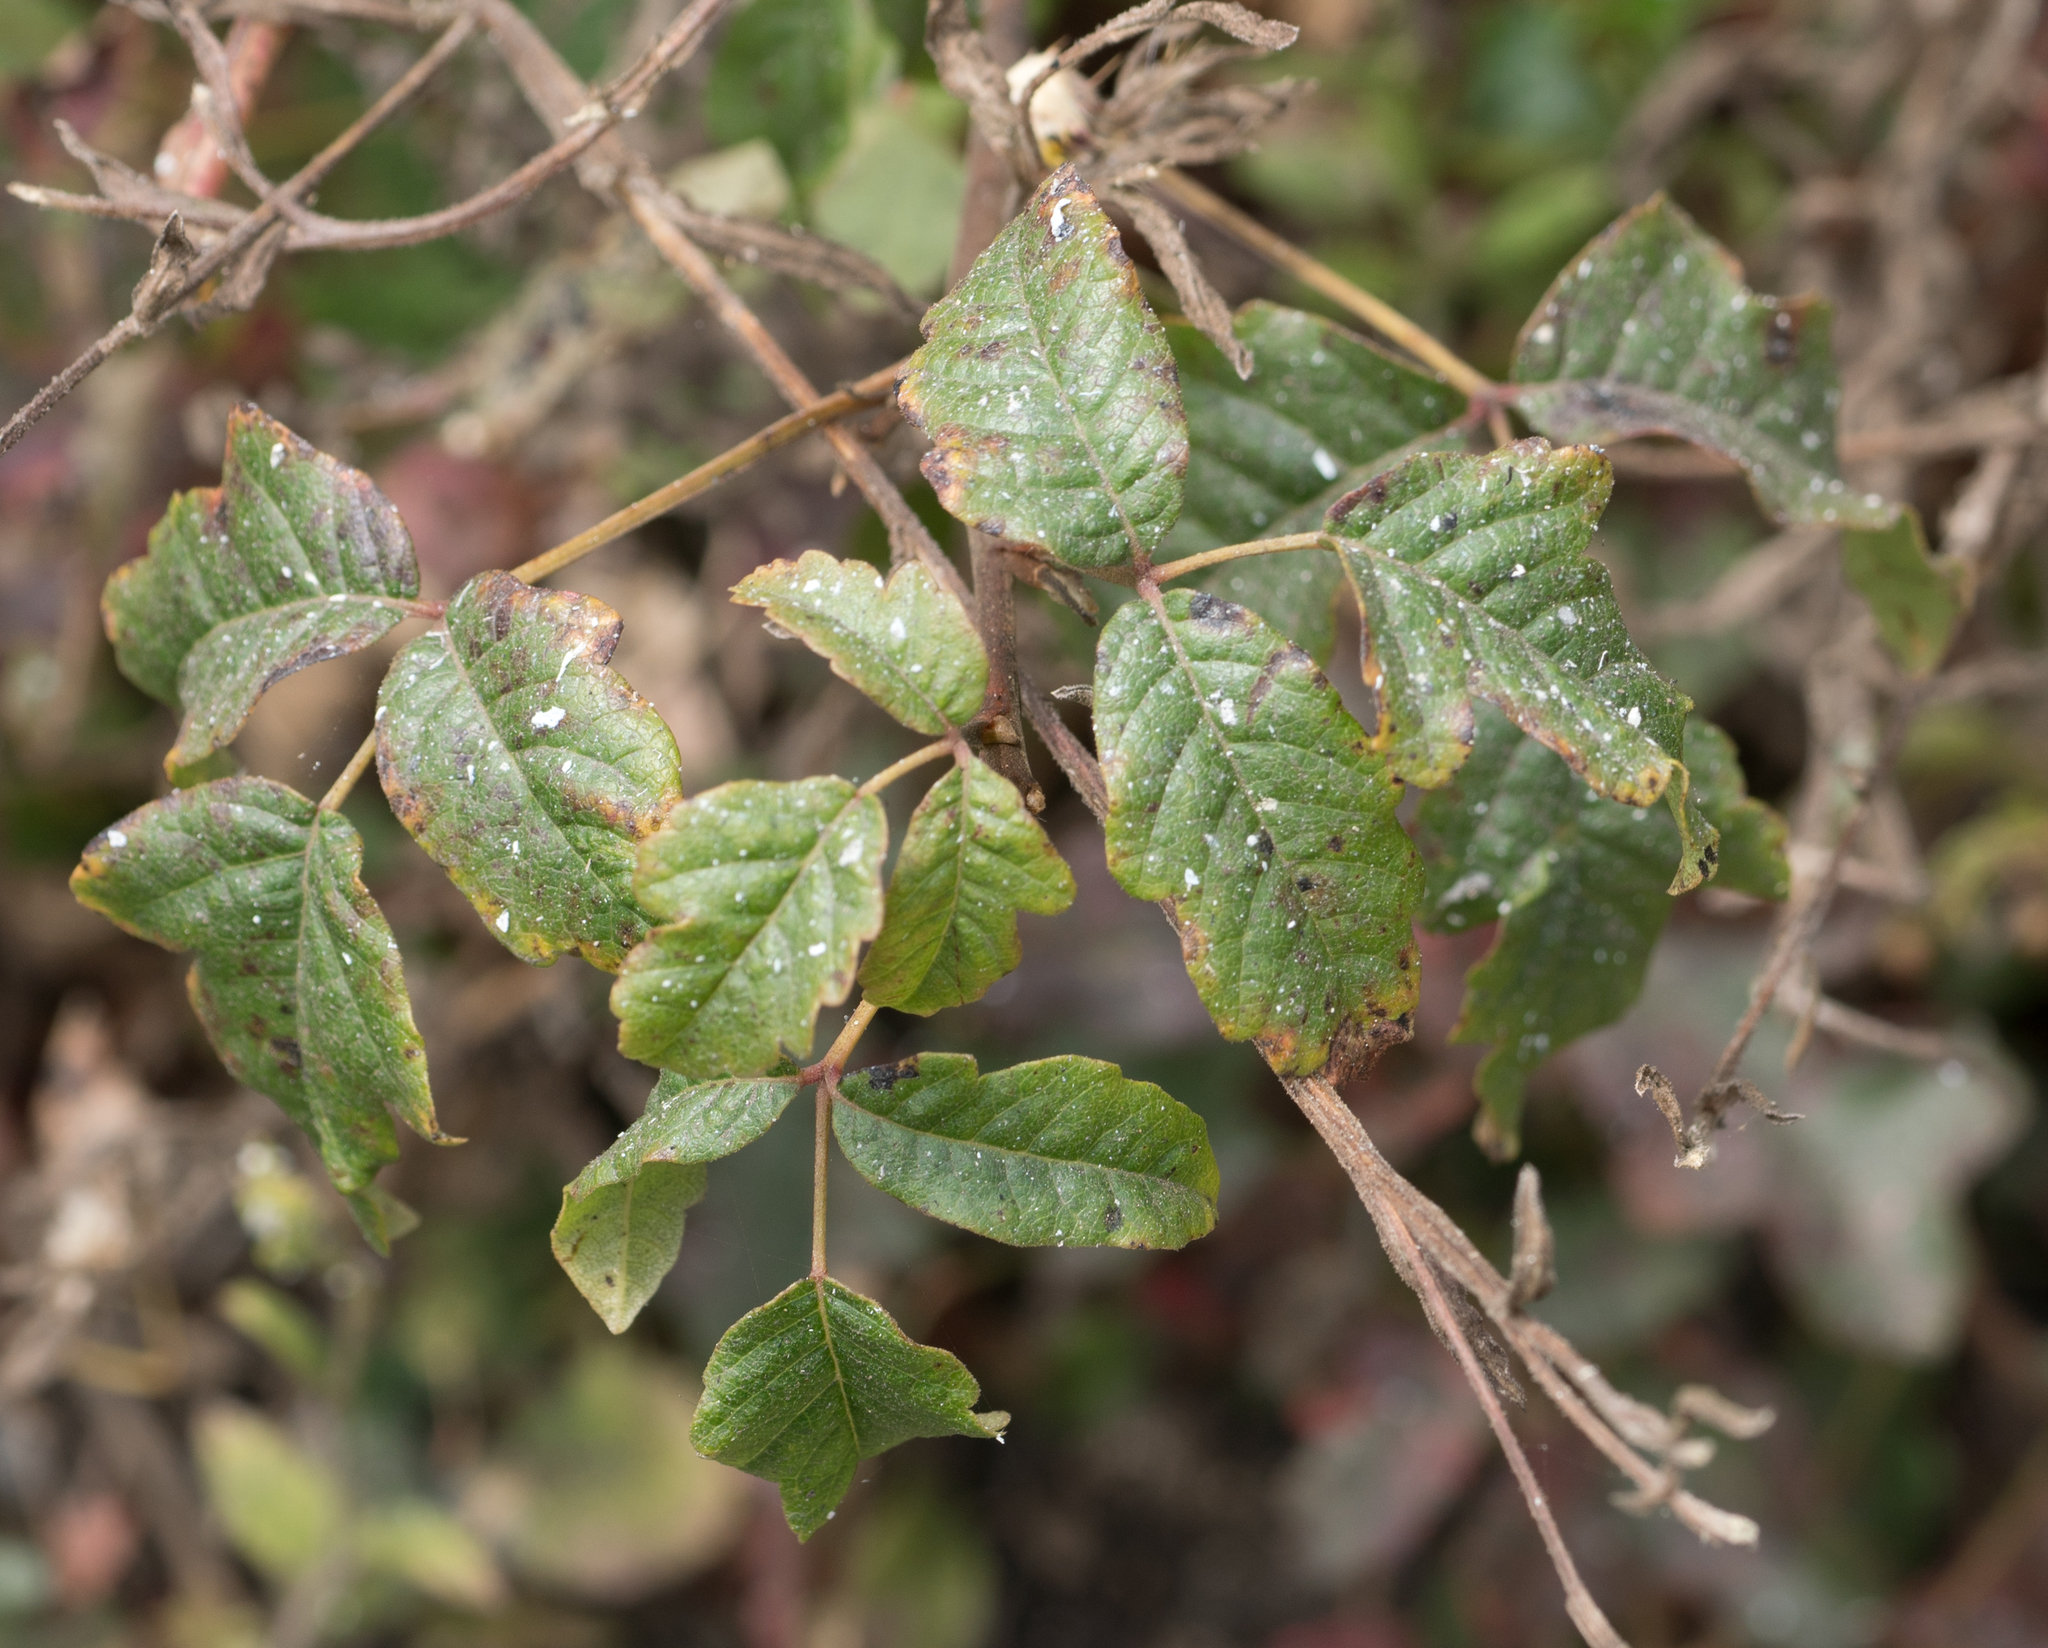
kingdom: Plantae
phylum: Tracheophyta
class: Magnoliopsida
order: Sapindales
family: Anacardiaceae
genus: Toxicodendron
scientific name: Toxicodendron diversilobum
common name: Pacific poison-oak
